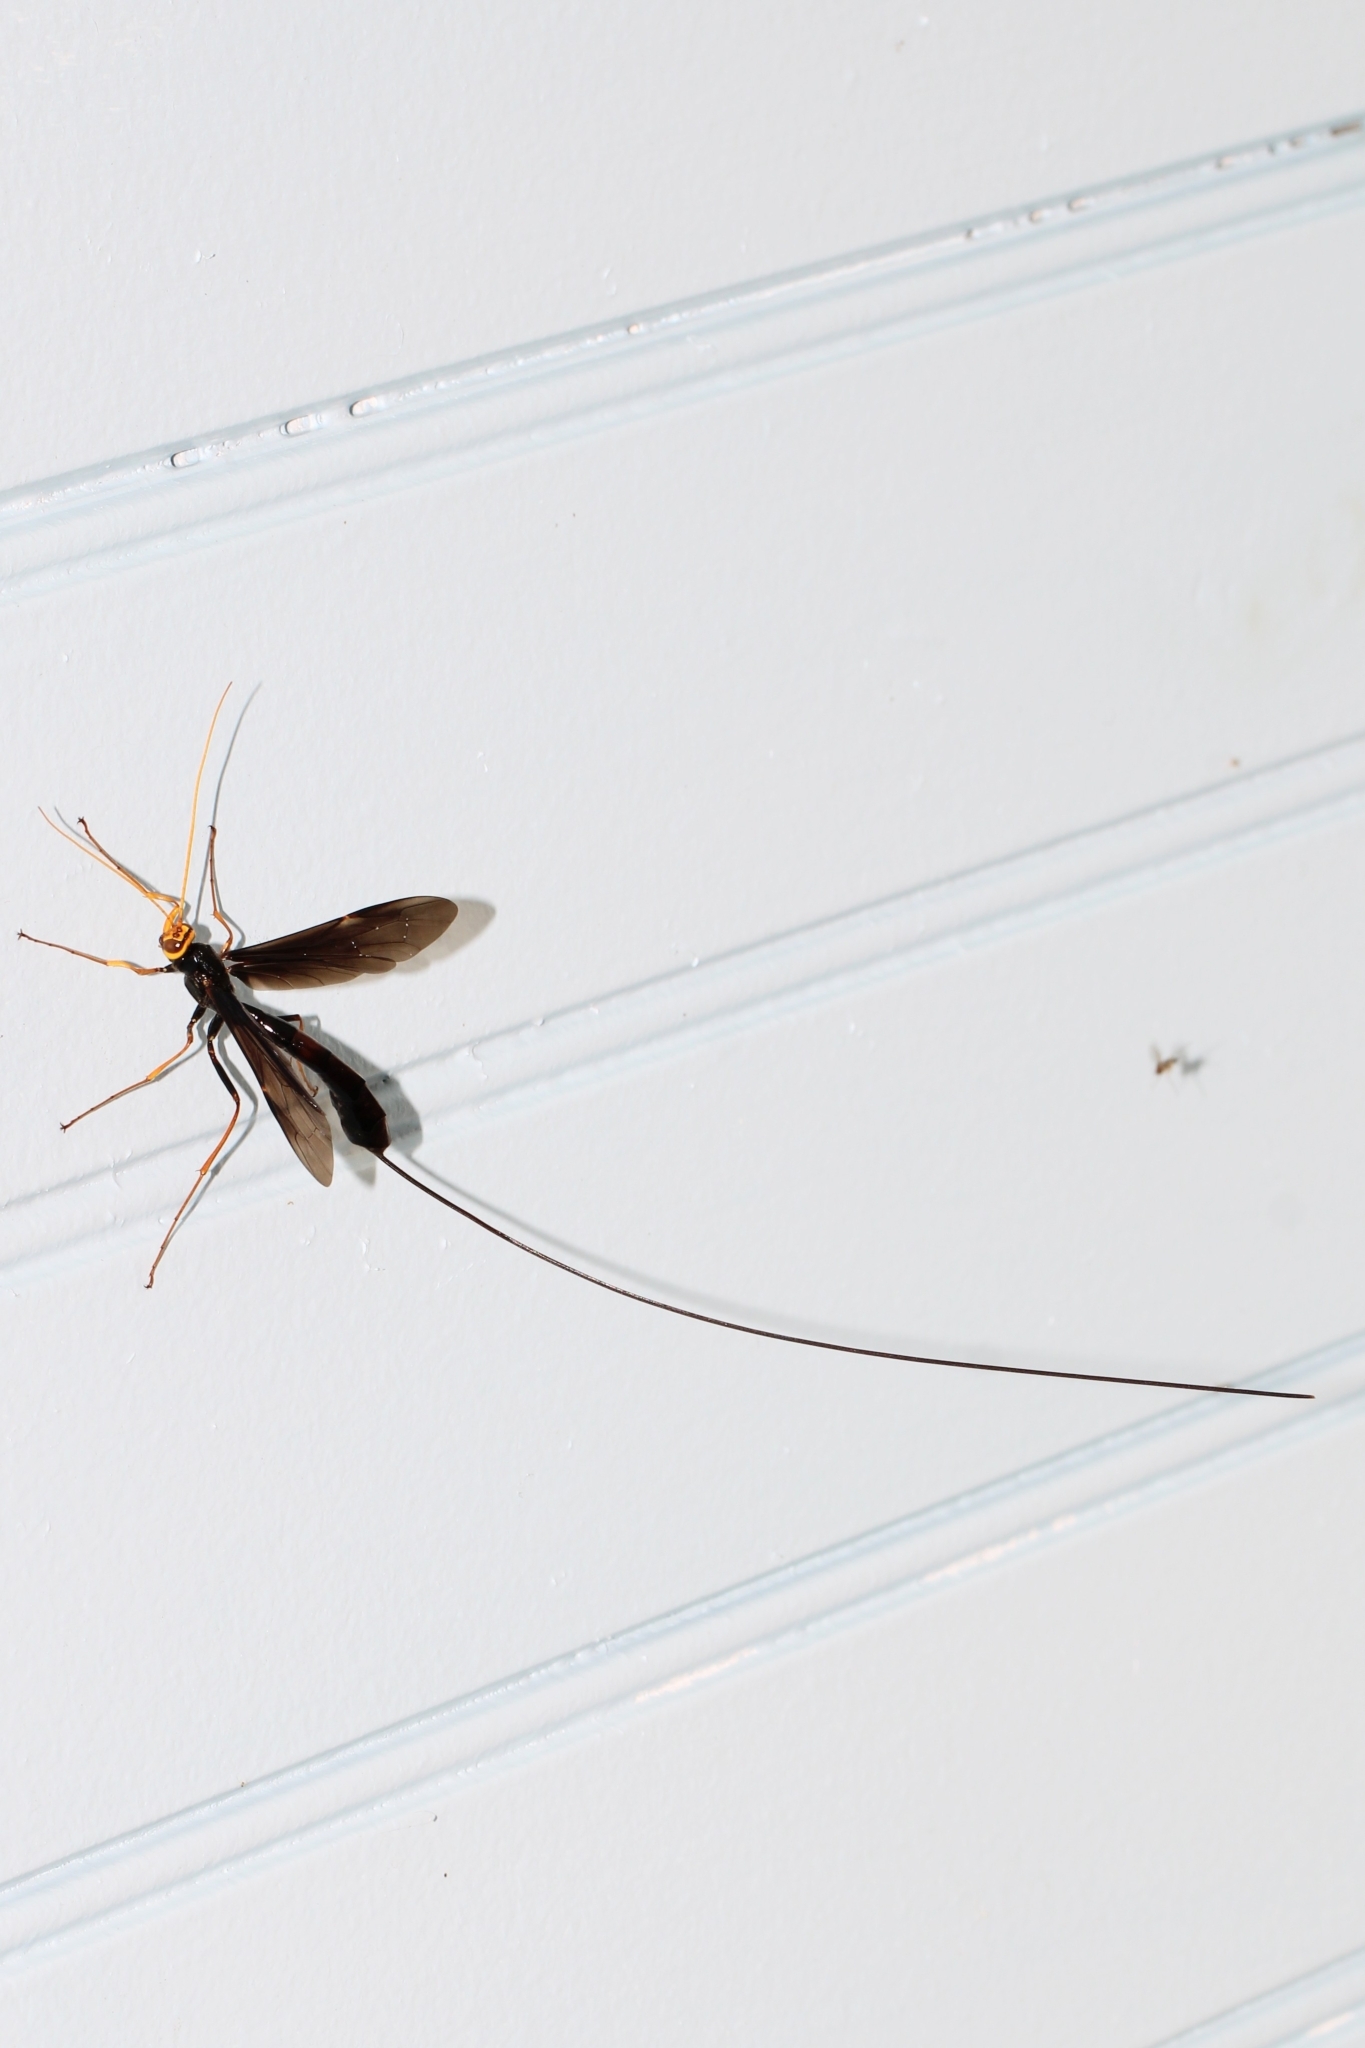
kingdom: Animalia
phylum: Arthropoda
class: Insecta
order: Hymenoptera
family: Ichneumonidae
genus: Megarhyssa
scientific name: Megarhyssa atrata
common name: Black giant ichneumonid wasp
